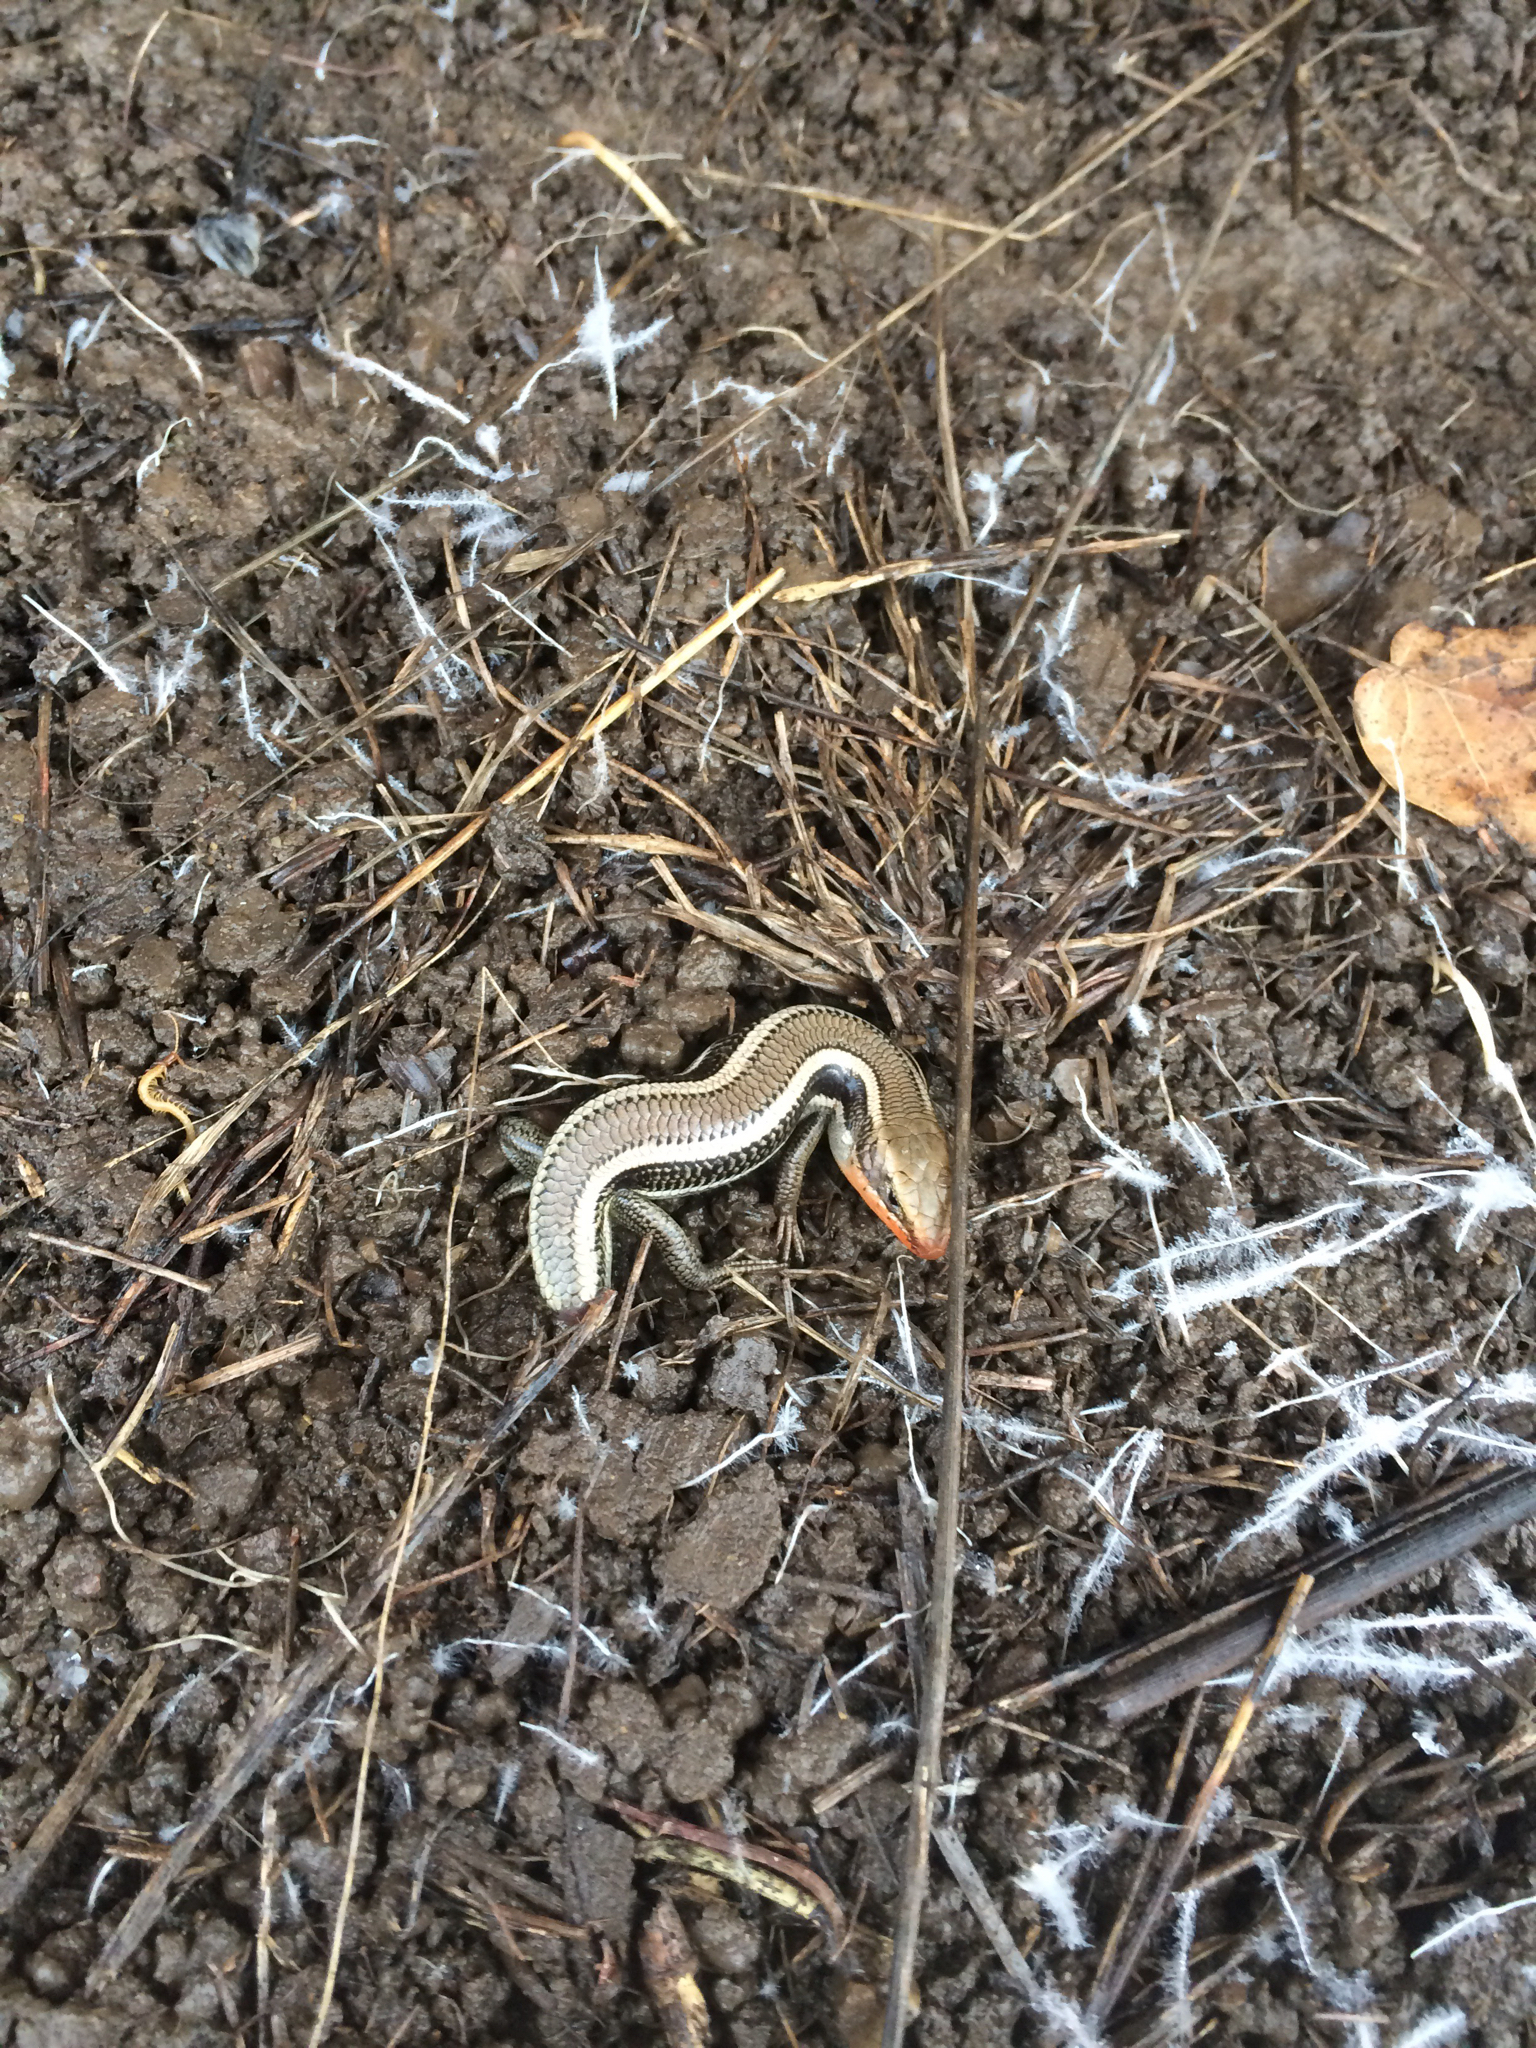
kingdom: Animalia
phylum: Chordata
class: Squamata
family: Scincidae
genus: Plestiodon
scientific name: Plestiodon skiltonianus
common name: Coronado island skink [interparietalis]
